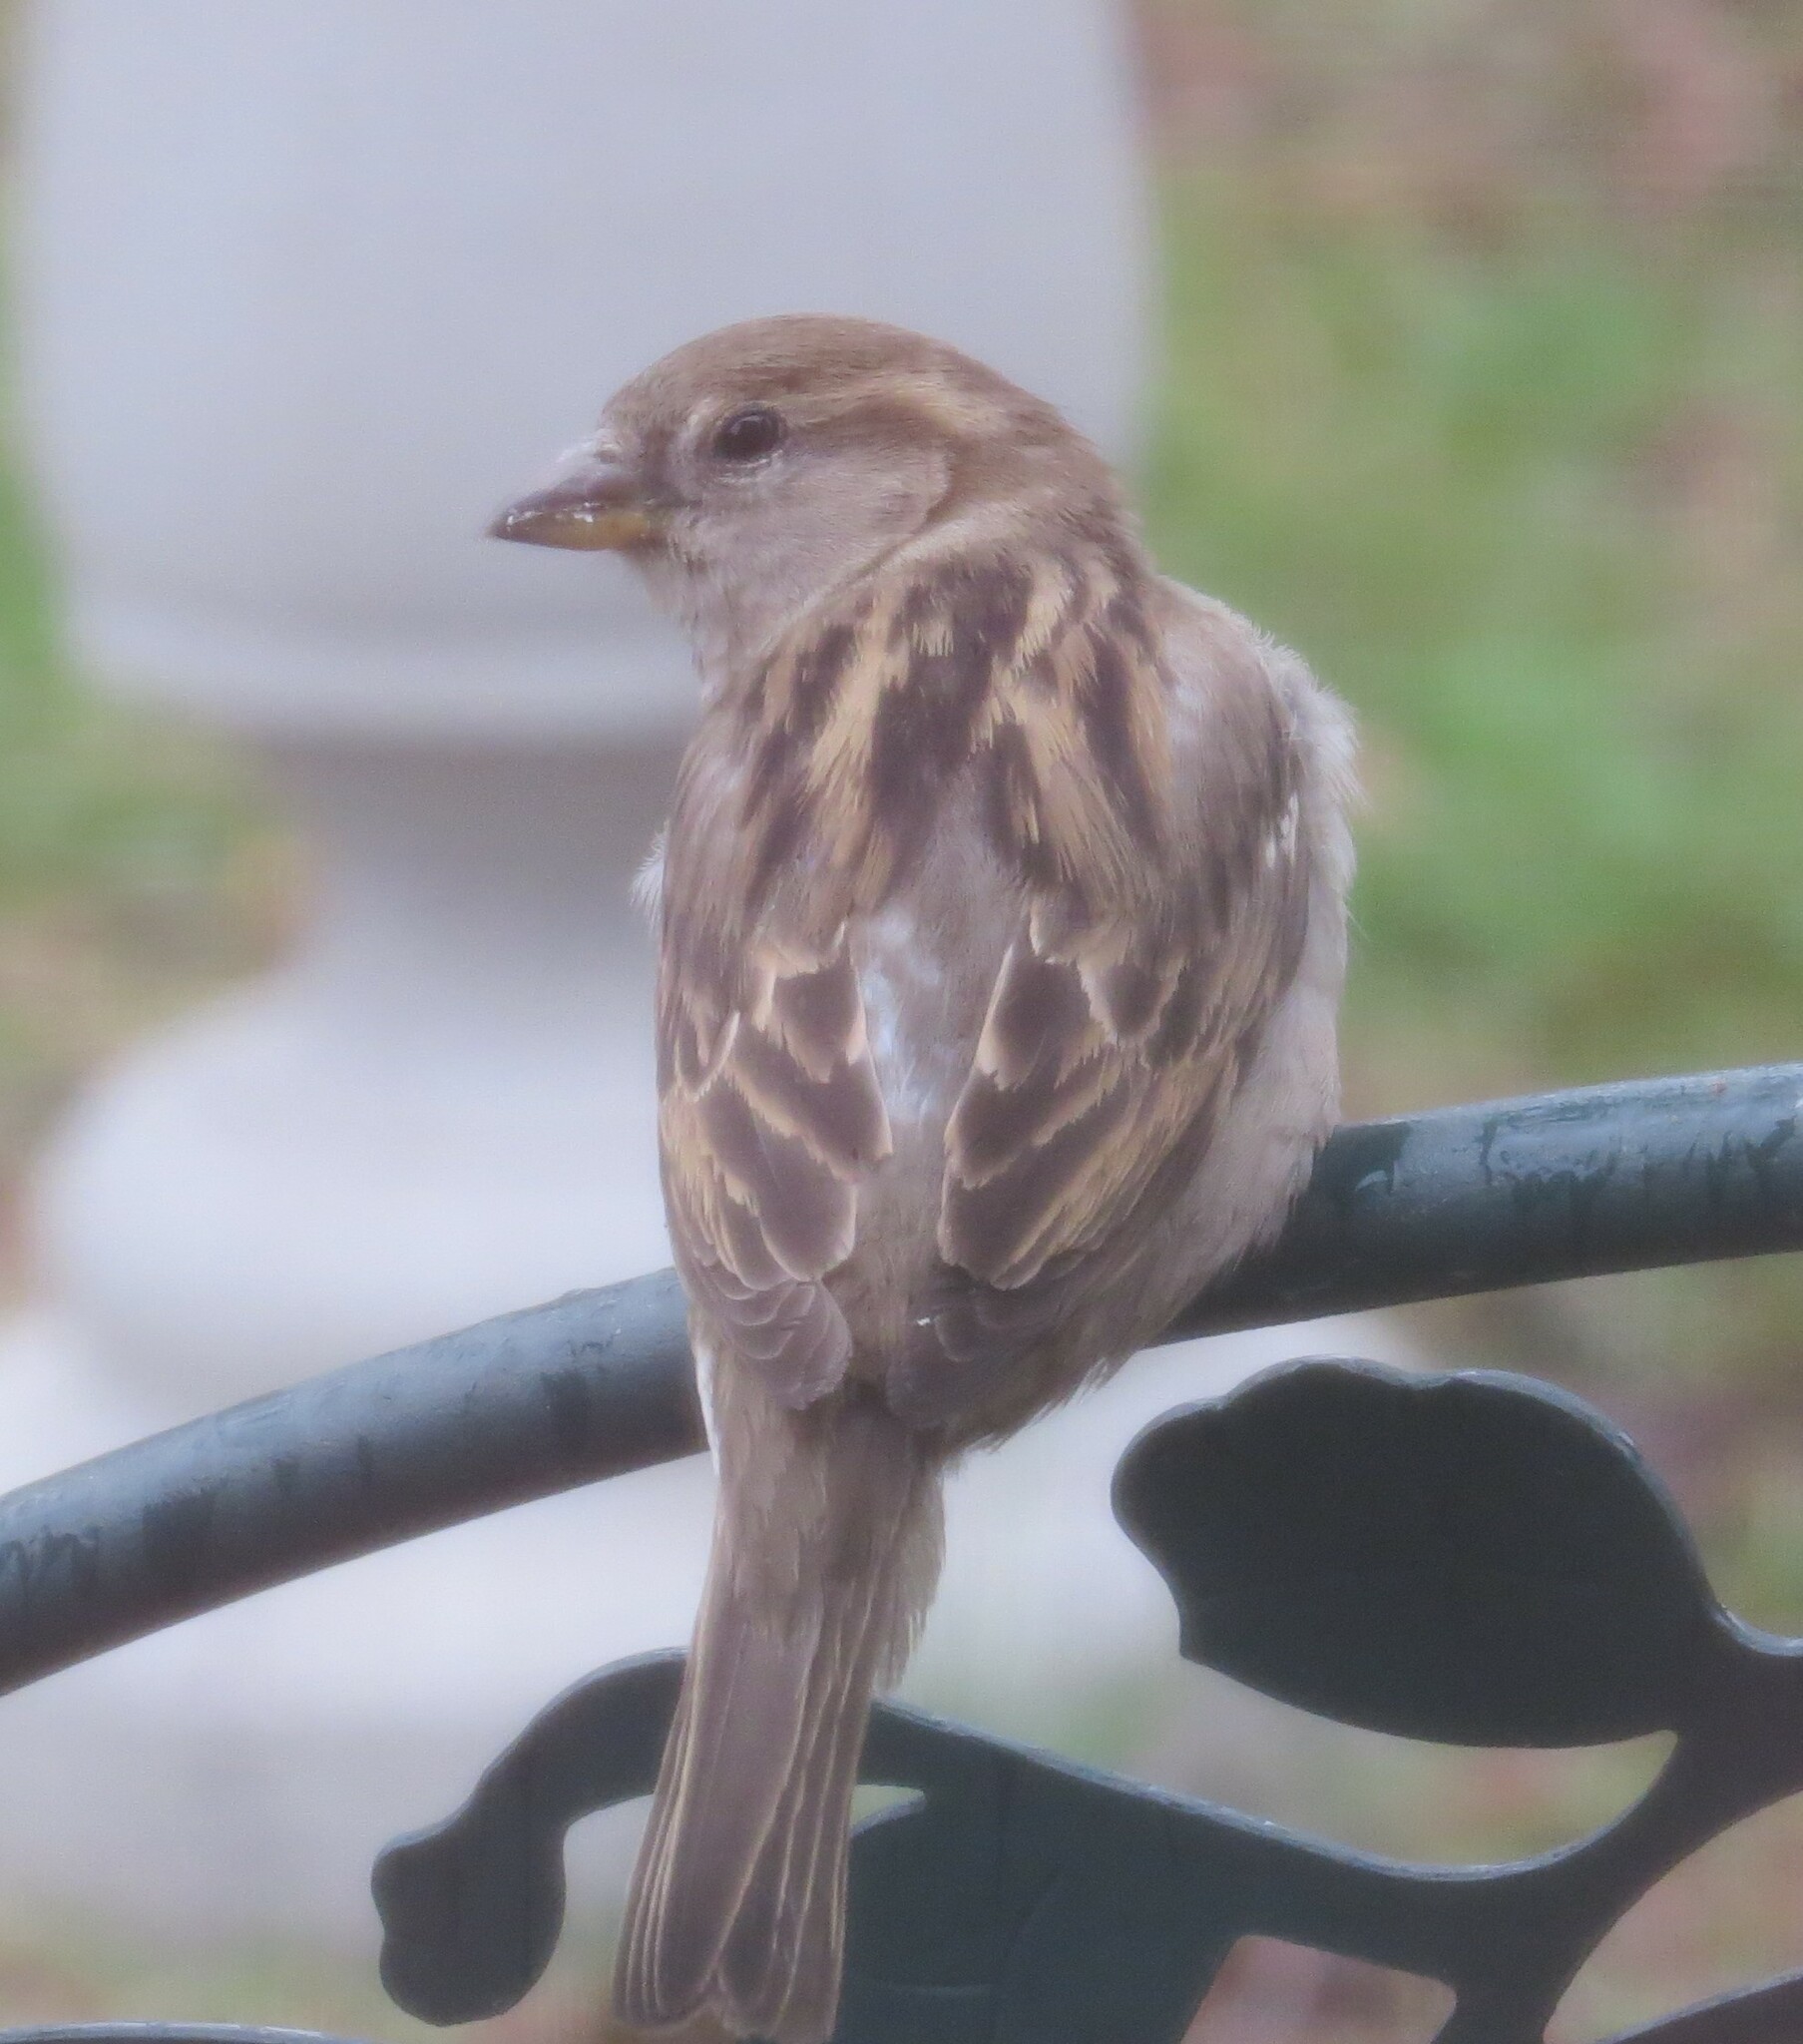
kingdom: Animalia
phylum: Chordata
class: Aves
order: Passeriformes
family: Passeridae
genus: Passer
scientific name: Passer domesticus
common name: House sparrow
